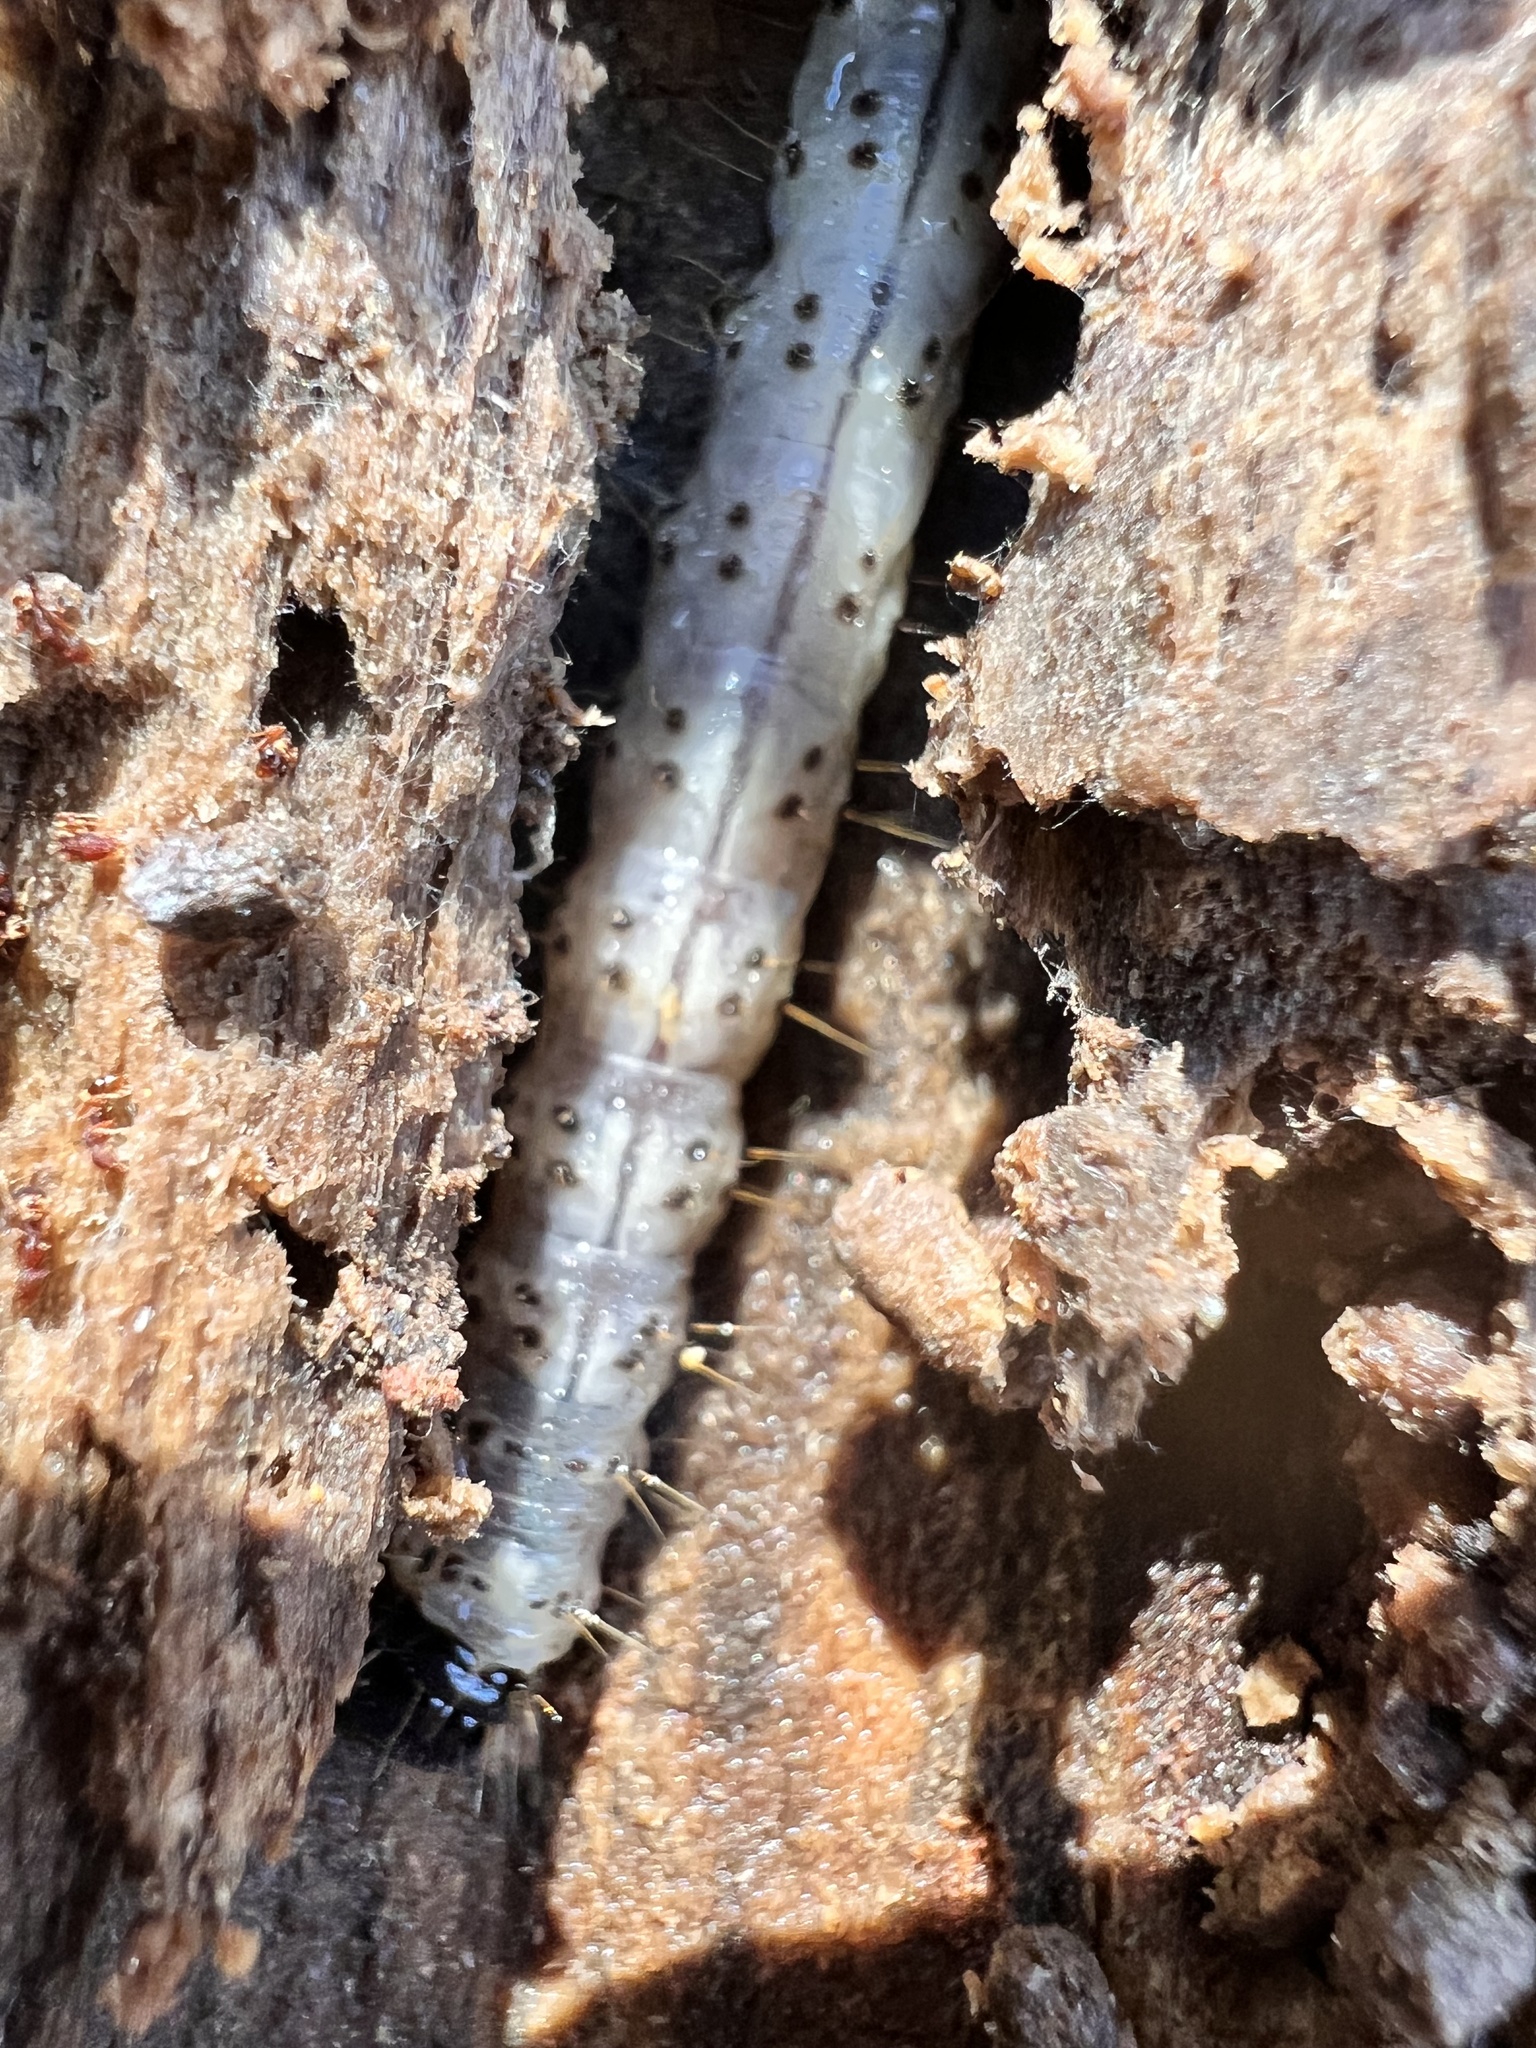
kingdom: Animalia
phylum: Arthropoda
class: Insecta
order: Lepidoptera
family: Erebidae
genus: Scolecocampa
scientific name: Scolecocampa liburna
